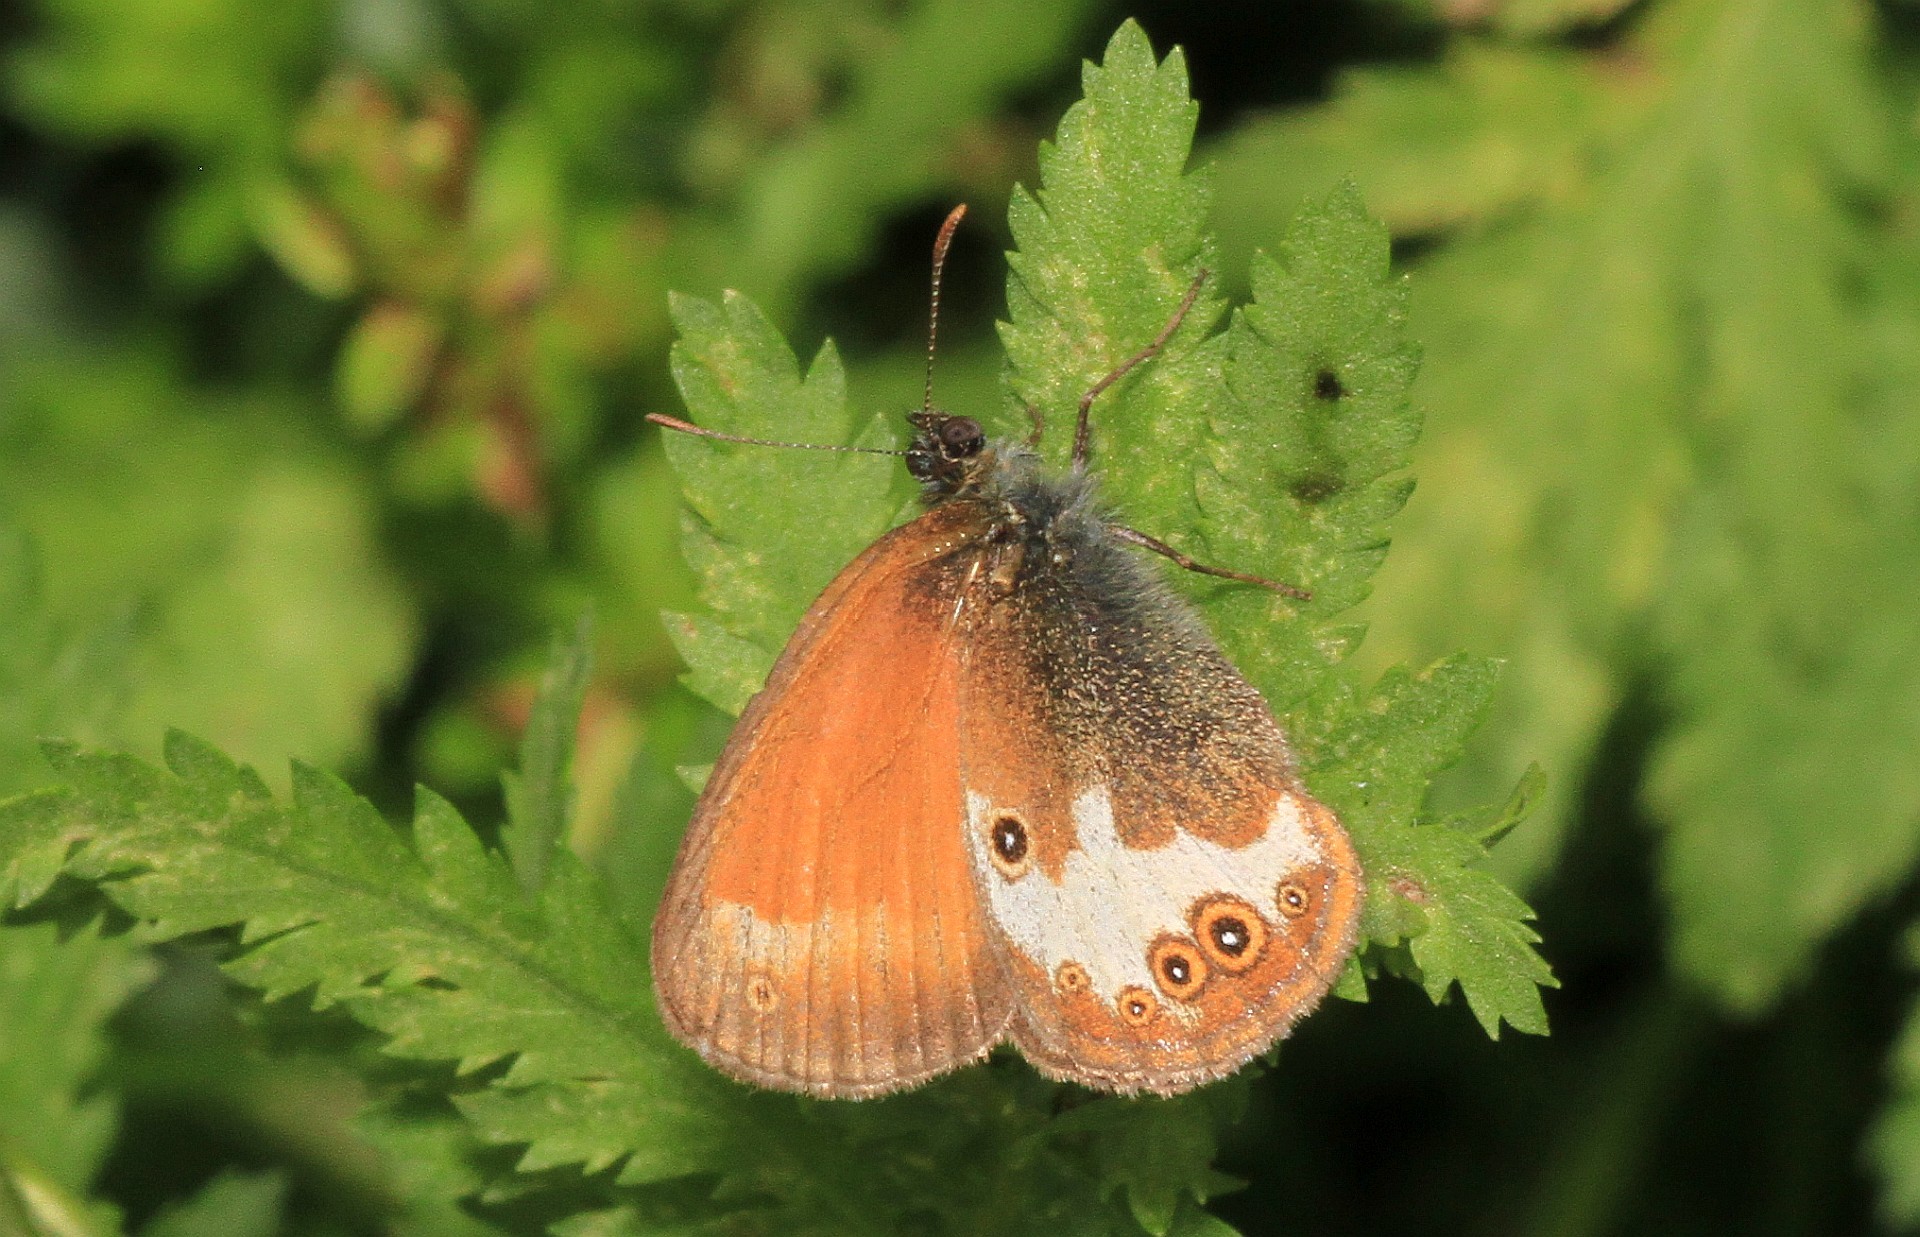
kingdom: Animalia
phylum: Arthropoda
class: Insecta
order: Lepidoptera
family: Nymphalidae
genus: Coenonympha
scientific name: Coenonympha arcania
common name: Pearly heath
